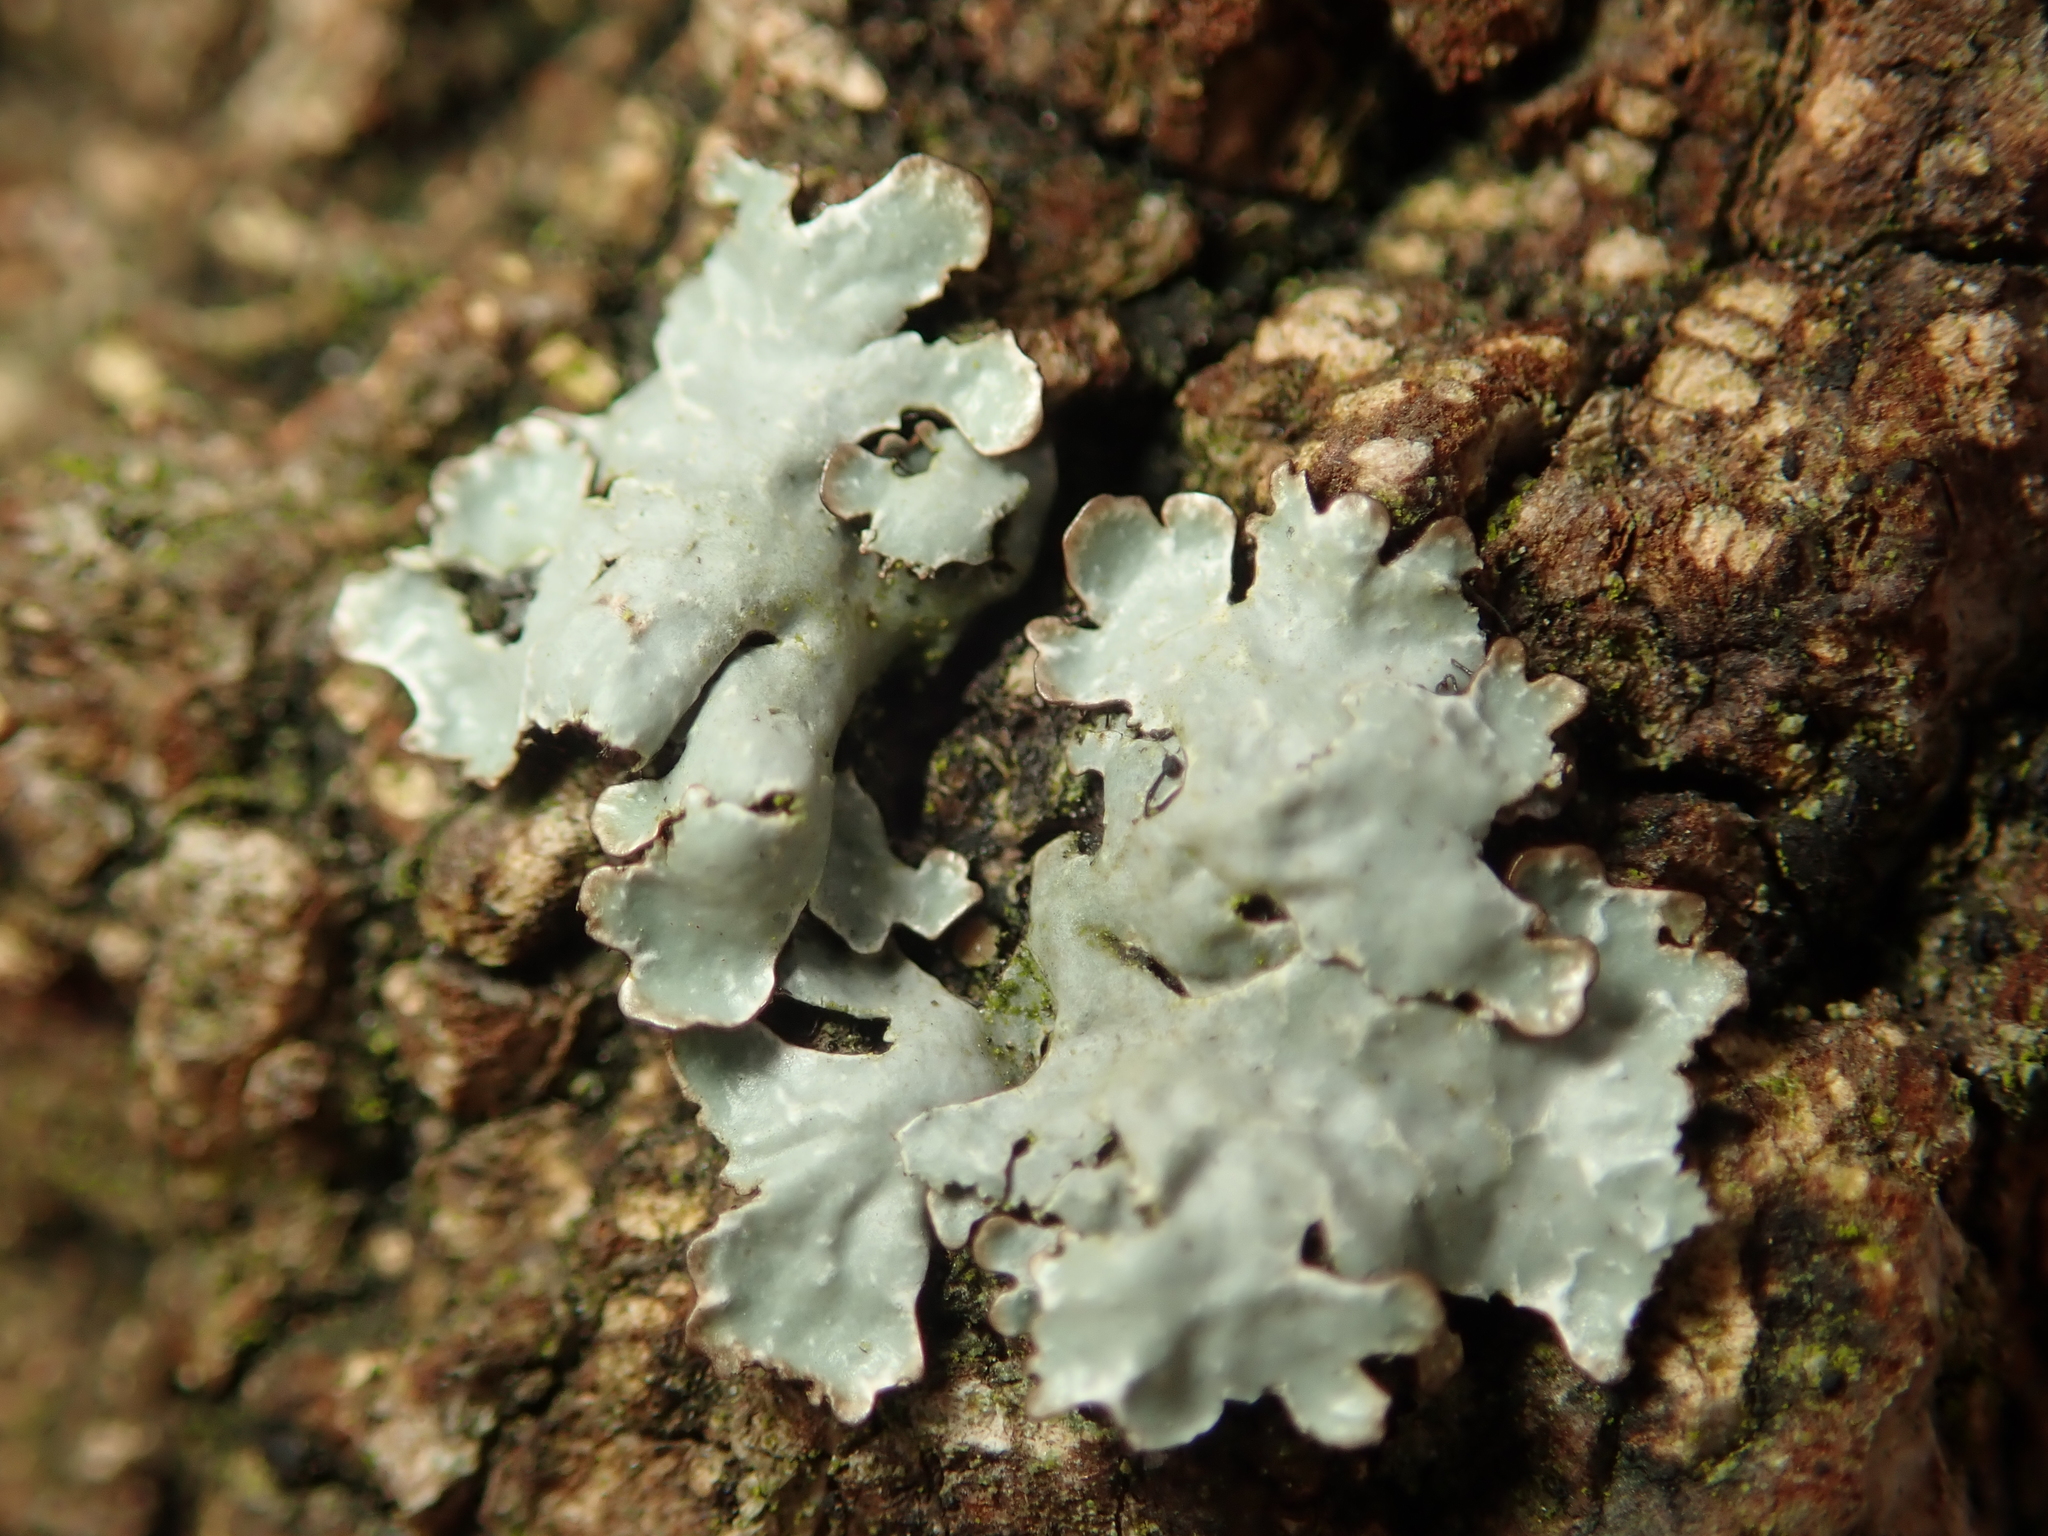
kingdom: Fungi
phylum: Ascomycota
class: Lecanoromycetes
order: Lecanorales
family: Parmeliaceae
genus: Parmelia
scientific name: Parmelia sulcata
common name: Netted shield lichen
